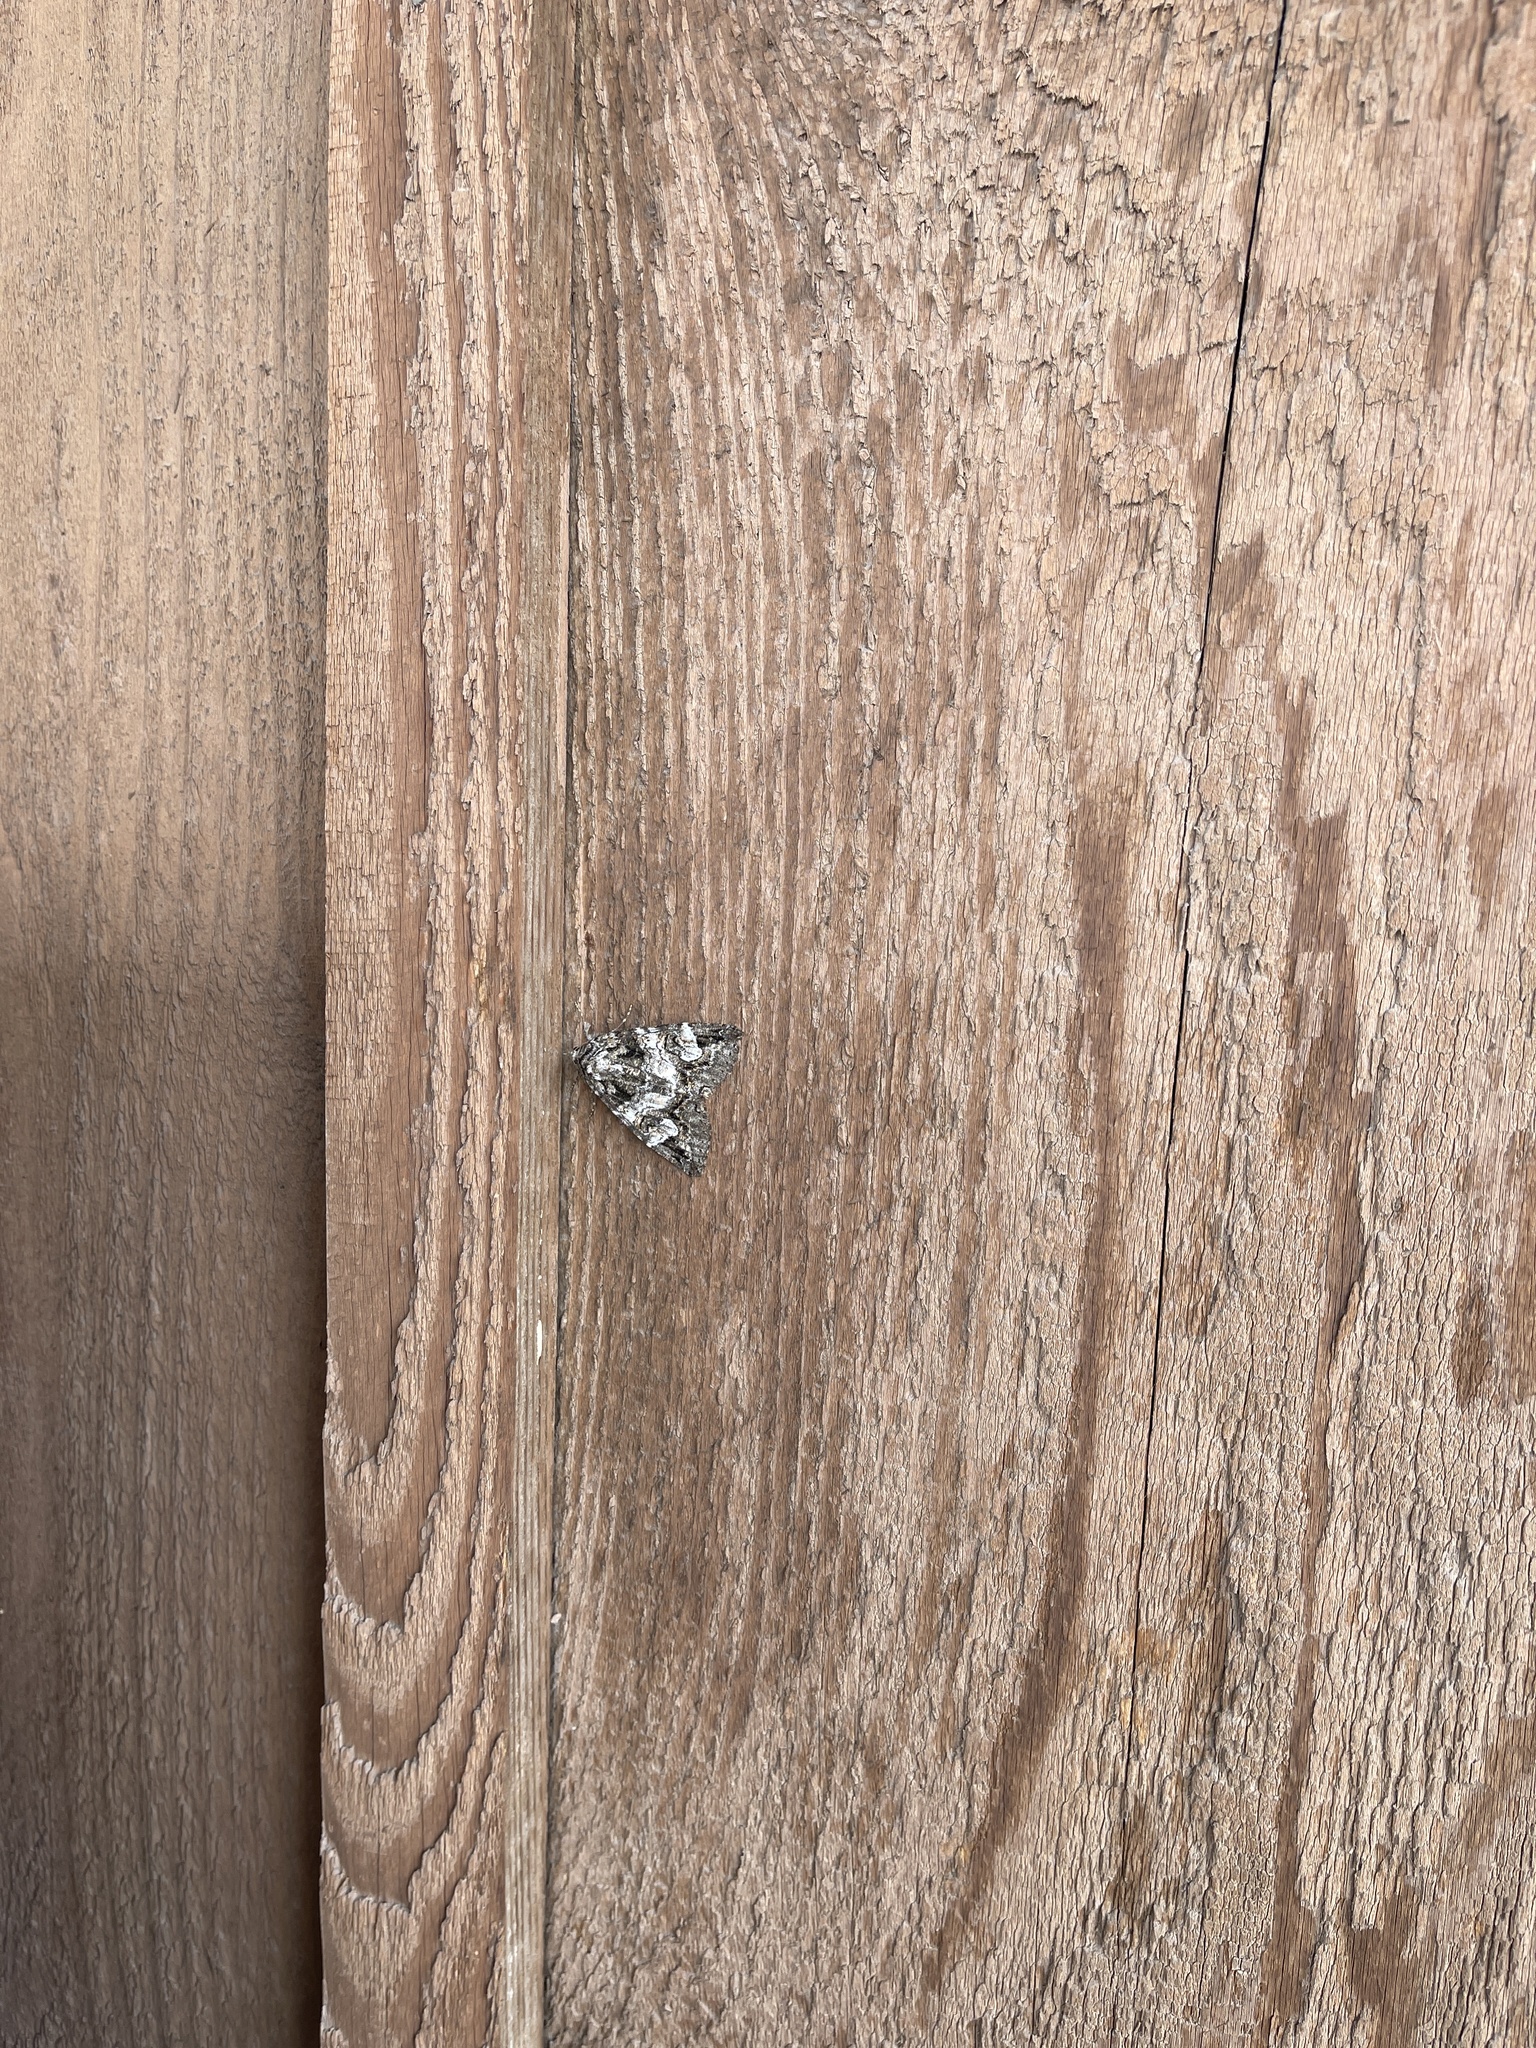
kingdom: Animalia
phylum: Arthropoda
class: Insecta
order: Lepidoptera
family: Erebidae
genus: Euparthenos
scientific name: Euparthenos nubilis
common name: Locust underwing
